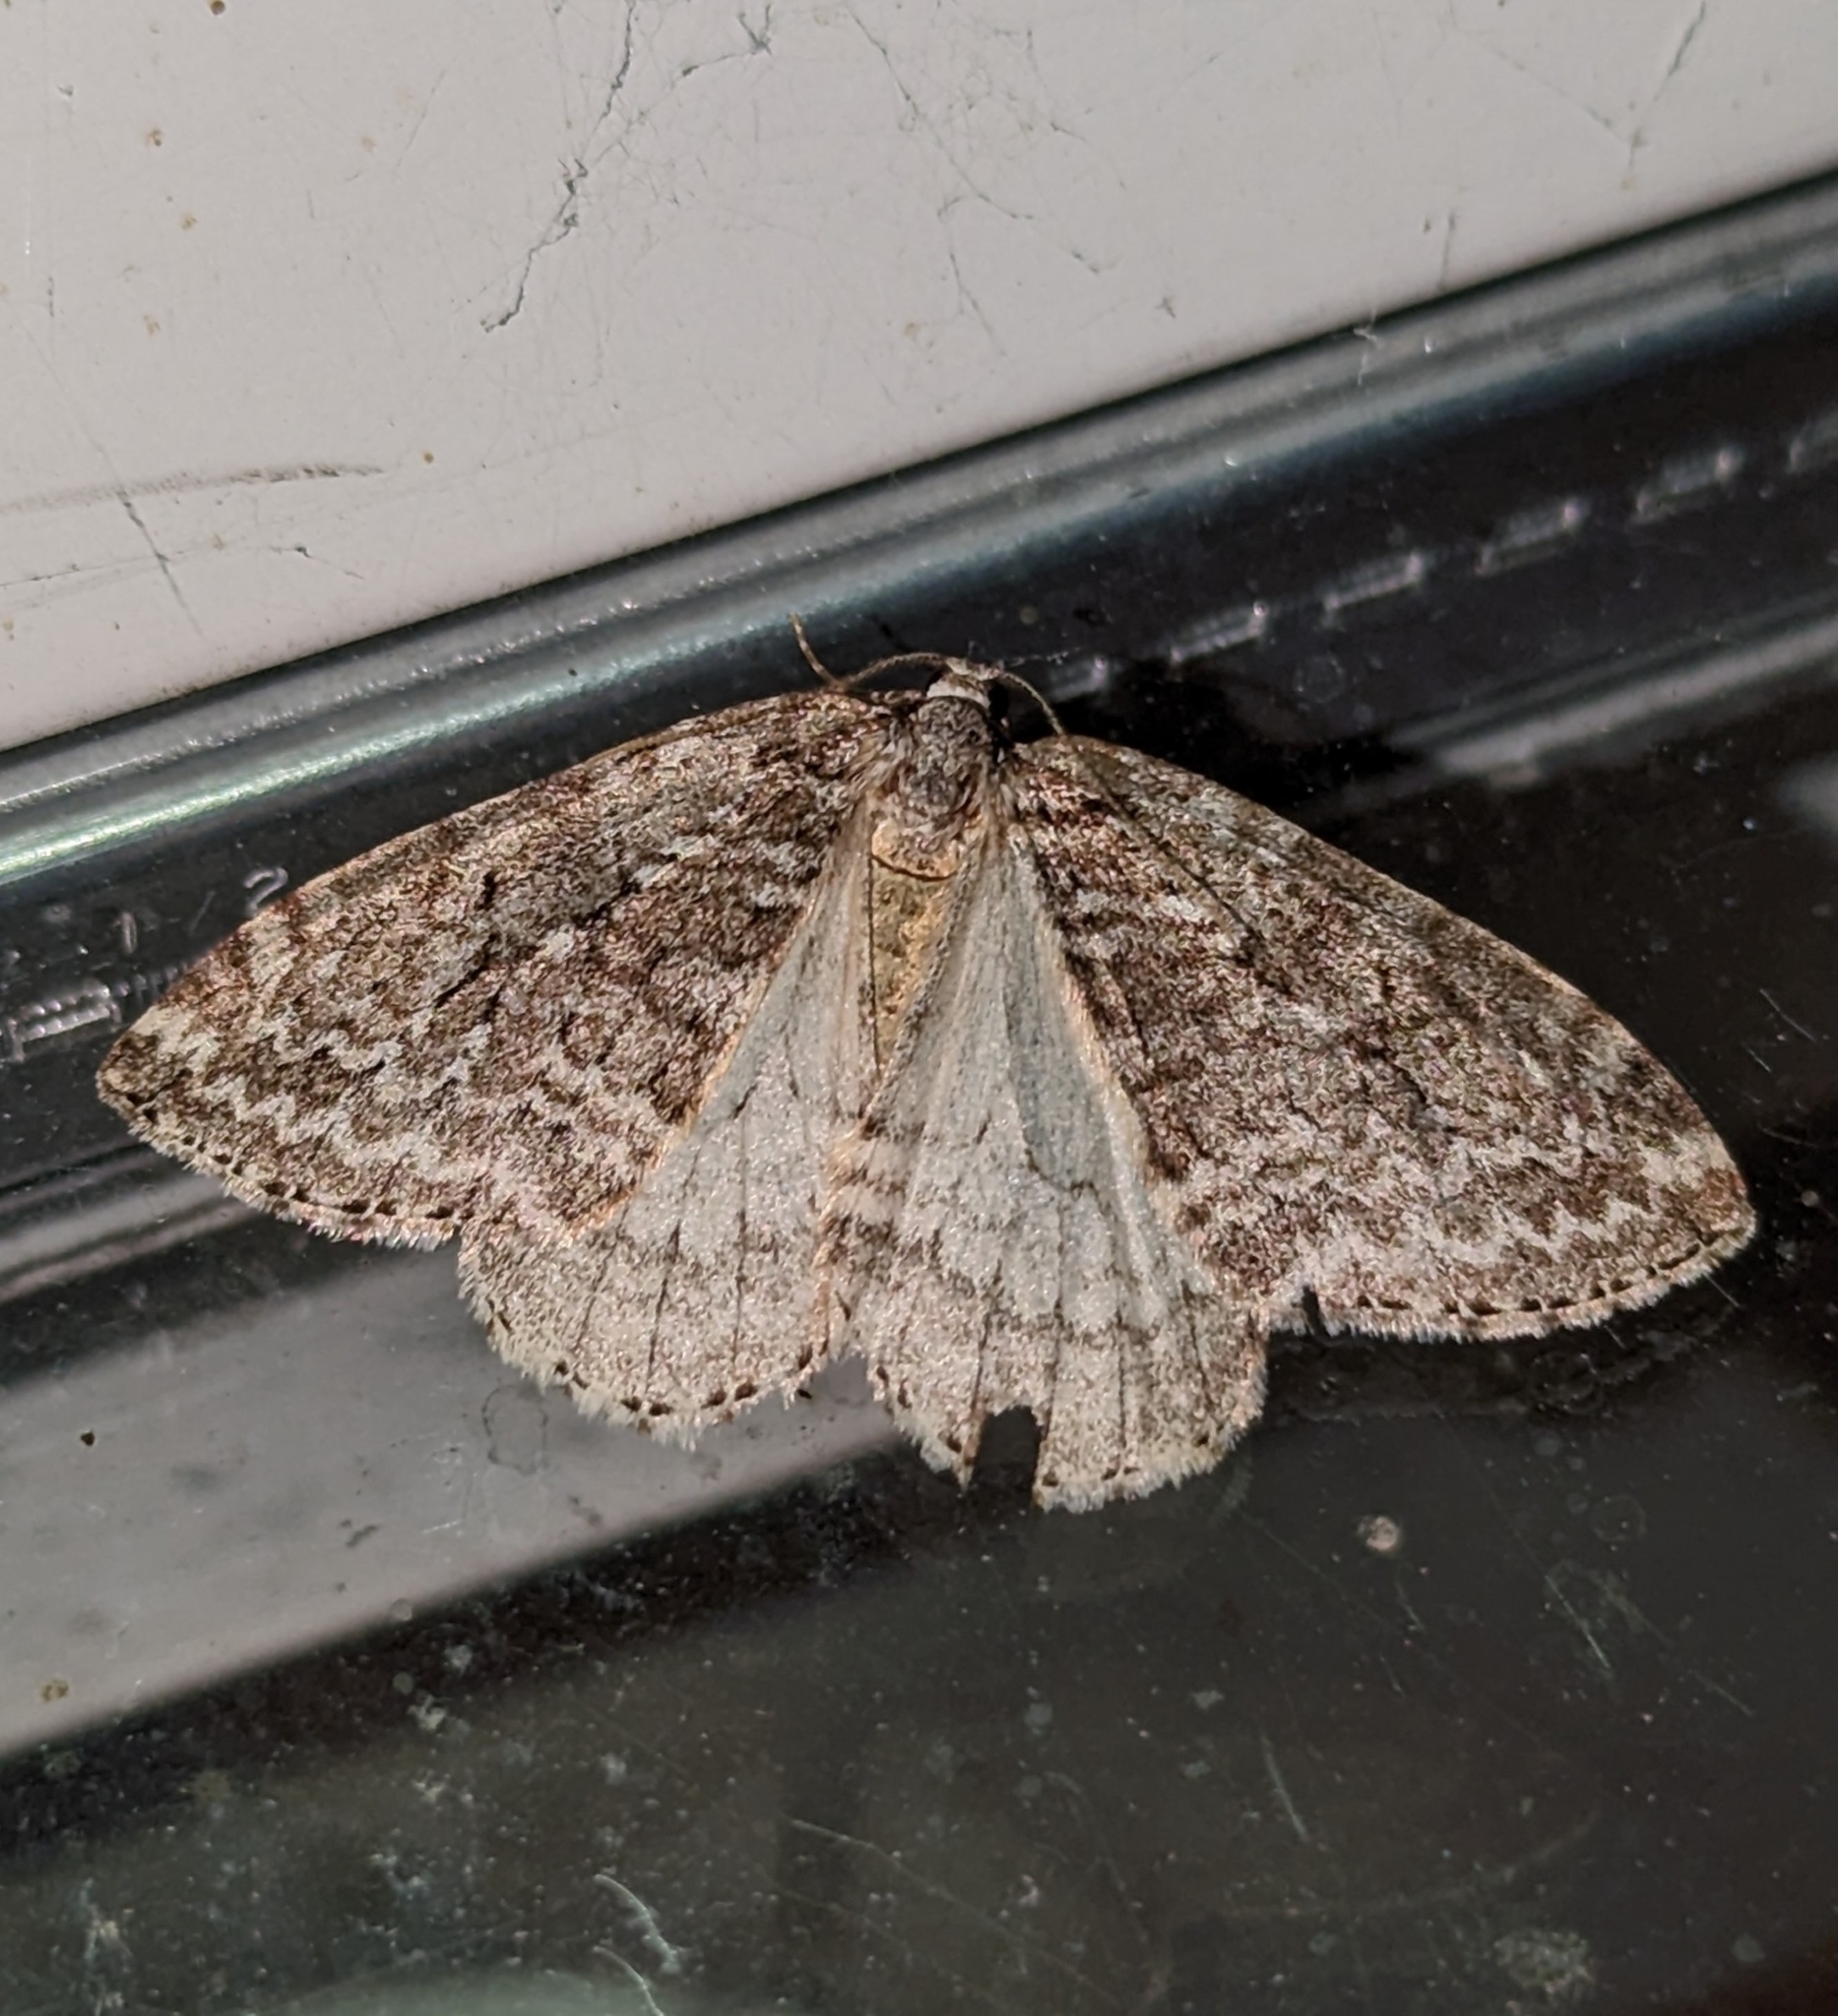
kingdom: Animalia
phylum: Arthropoda
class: Insecta
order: Lepidoptera
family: Geometridae
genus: Epirrita
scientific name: Epirrita autumnata
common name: Autumnal moth
